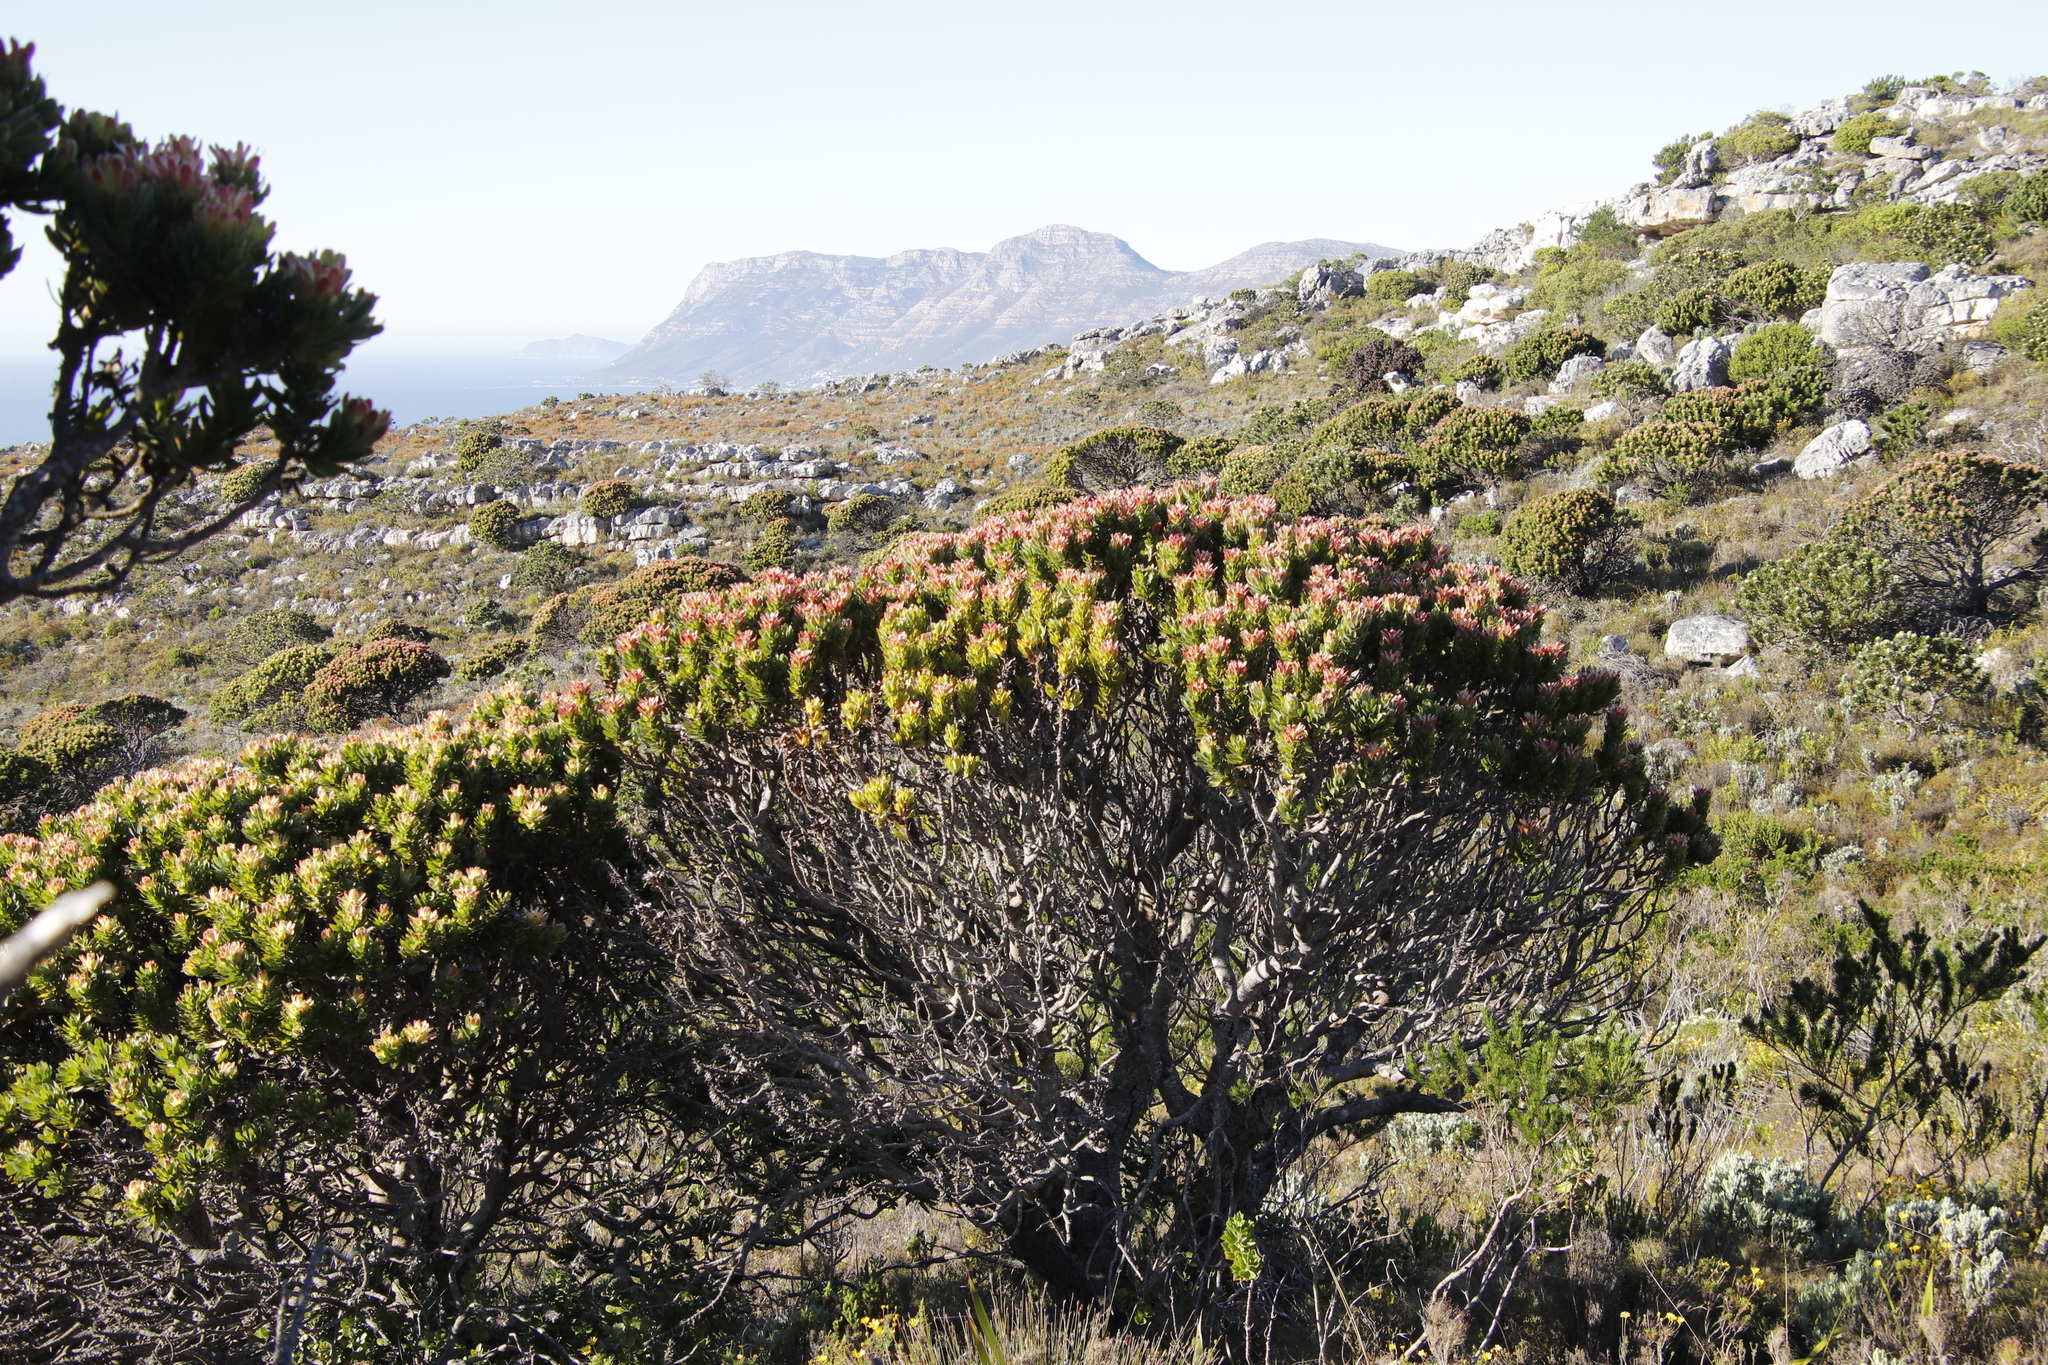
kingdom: Plantae
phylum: Tracheophyta
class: Magnoliopsida
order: Proteales
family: Proteaceae
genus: Mimetes
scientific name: Mimetes fimbriifolius
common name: Fringed bottlebrush
